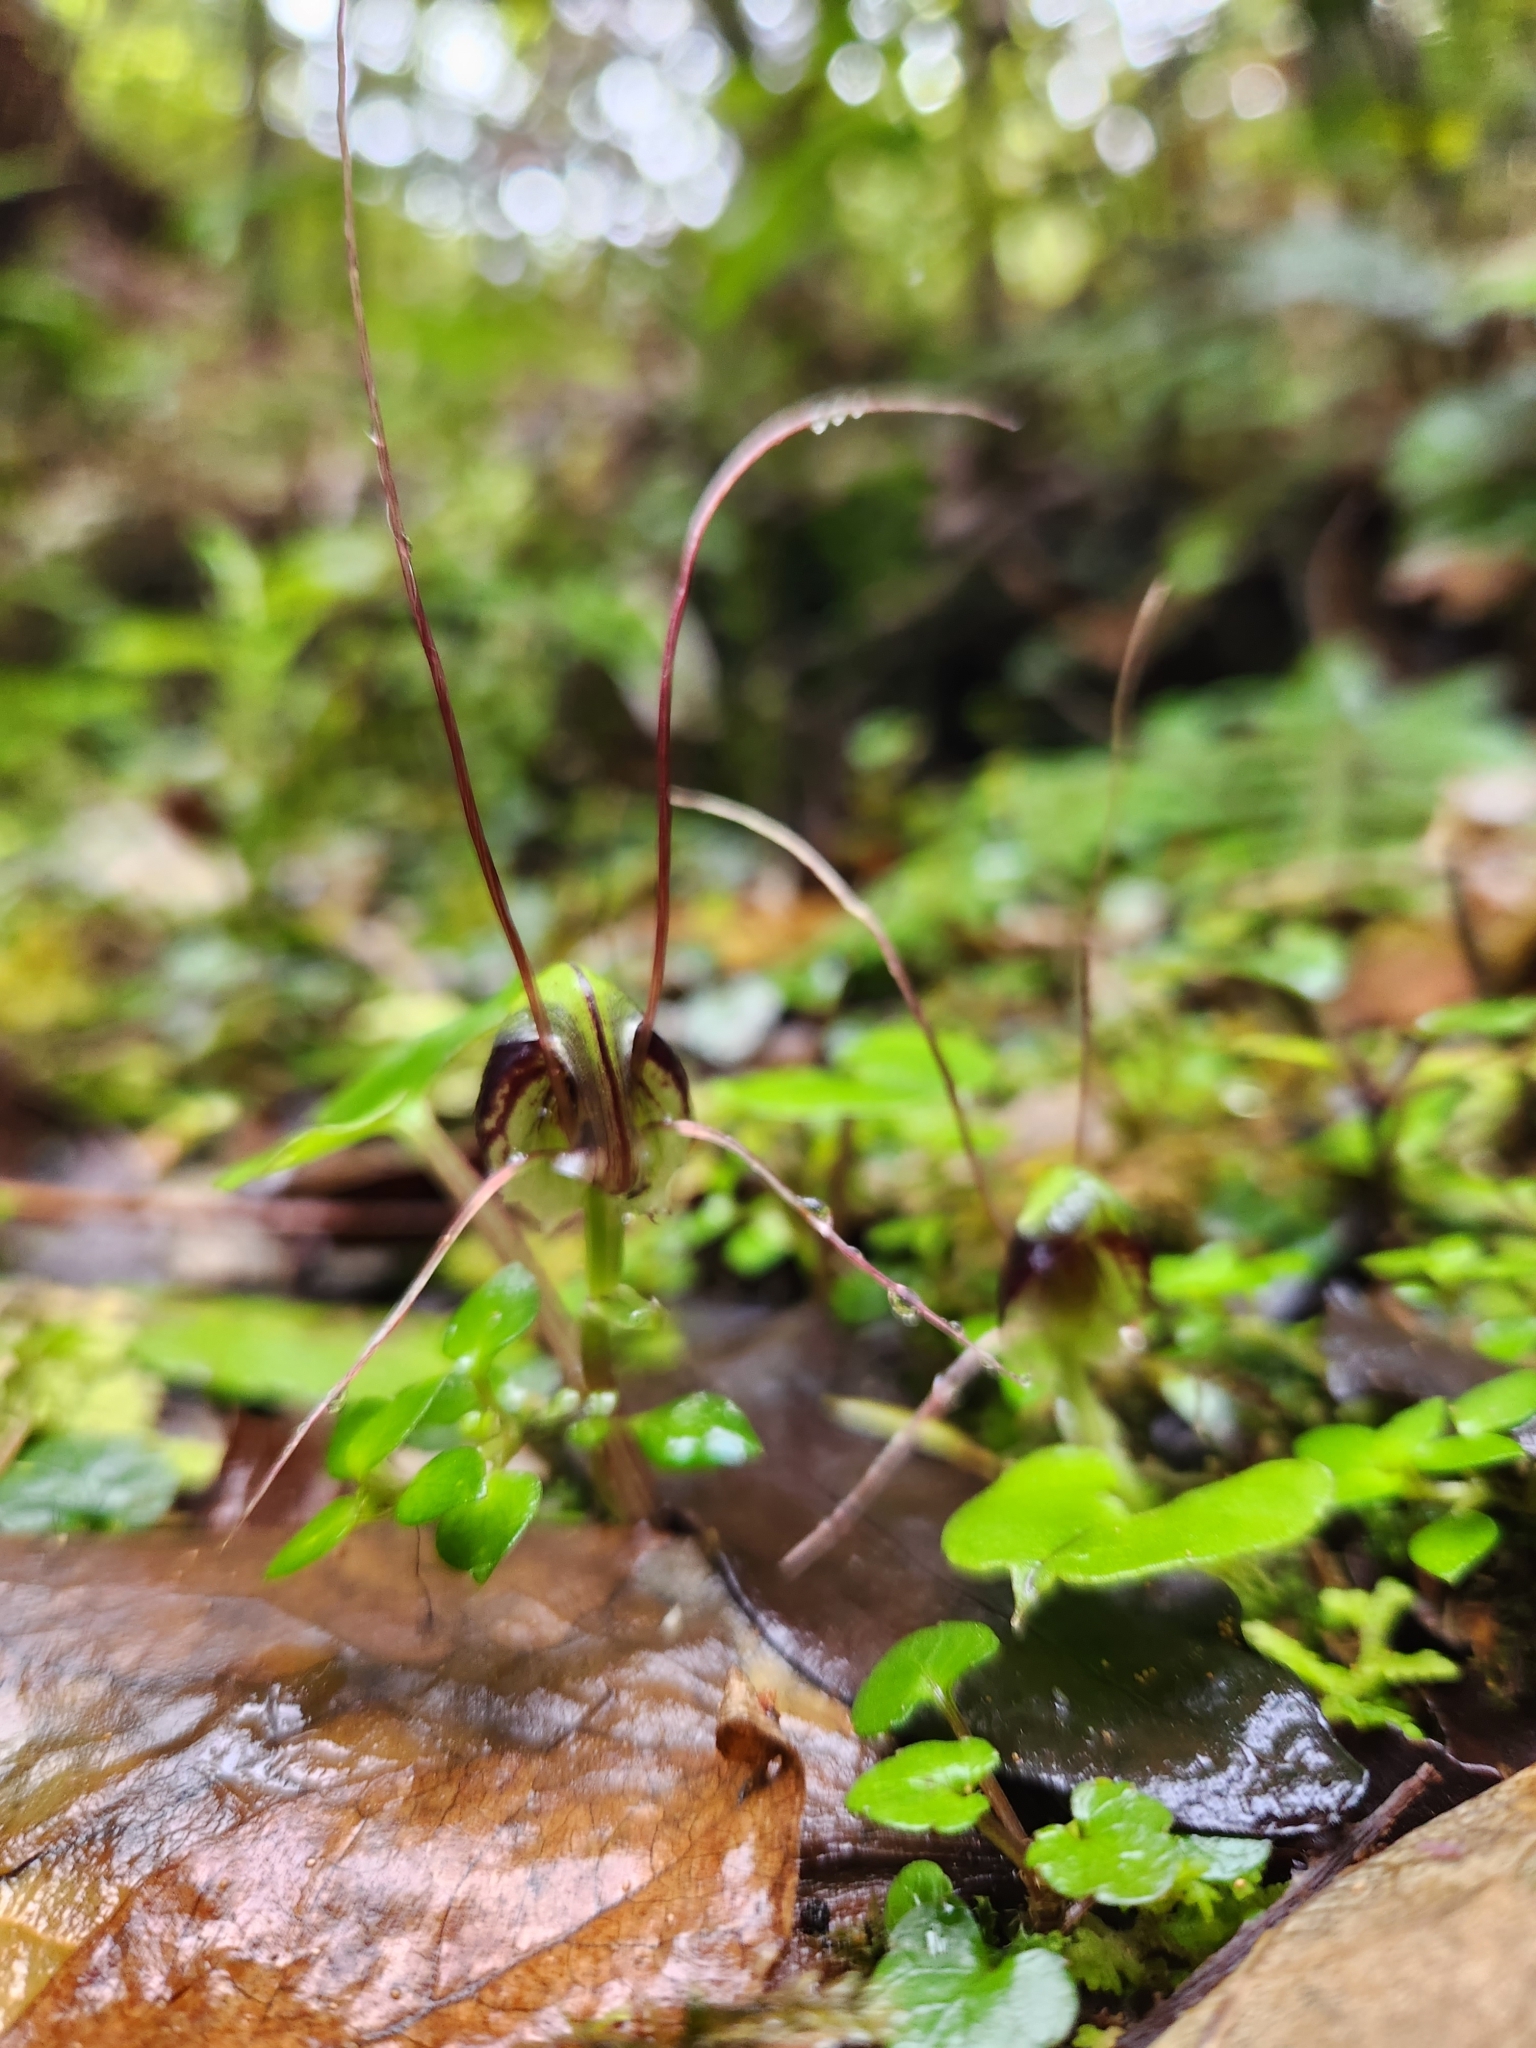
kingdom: Plantae
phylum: Tracheophyta
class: Liliopsida
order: Asparagales
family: Orchidaceae
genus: Corybas
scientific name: Corybas vitreus
